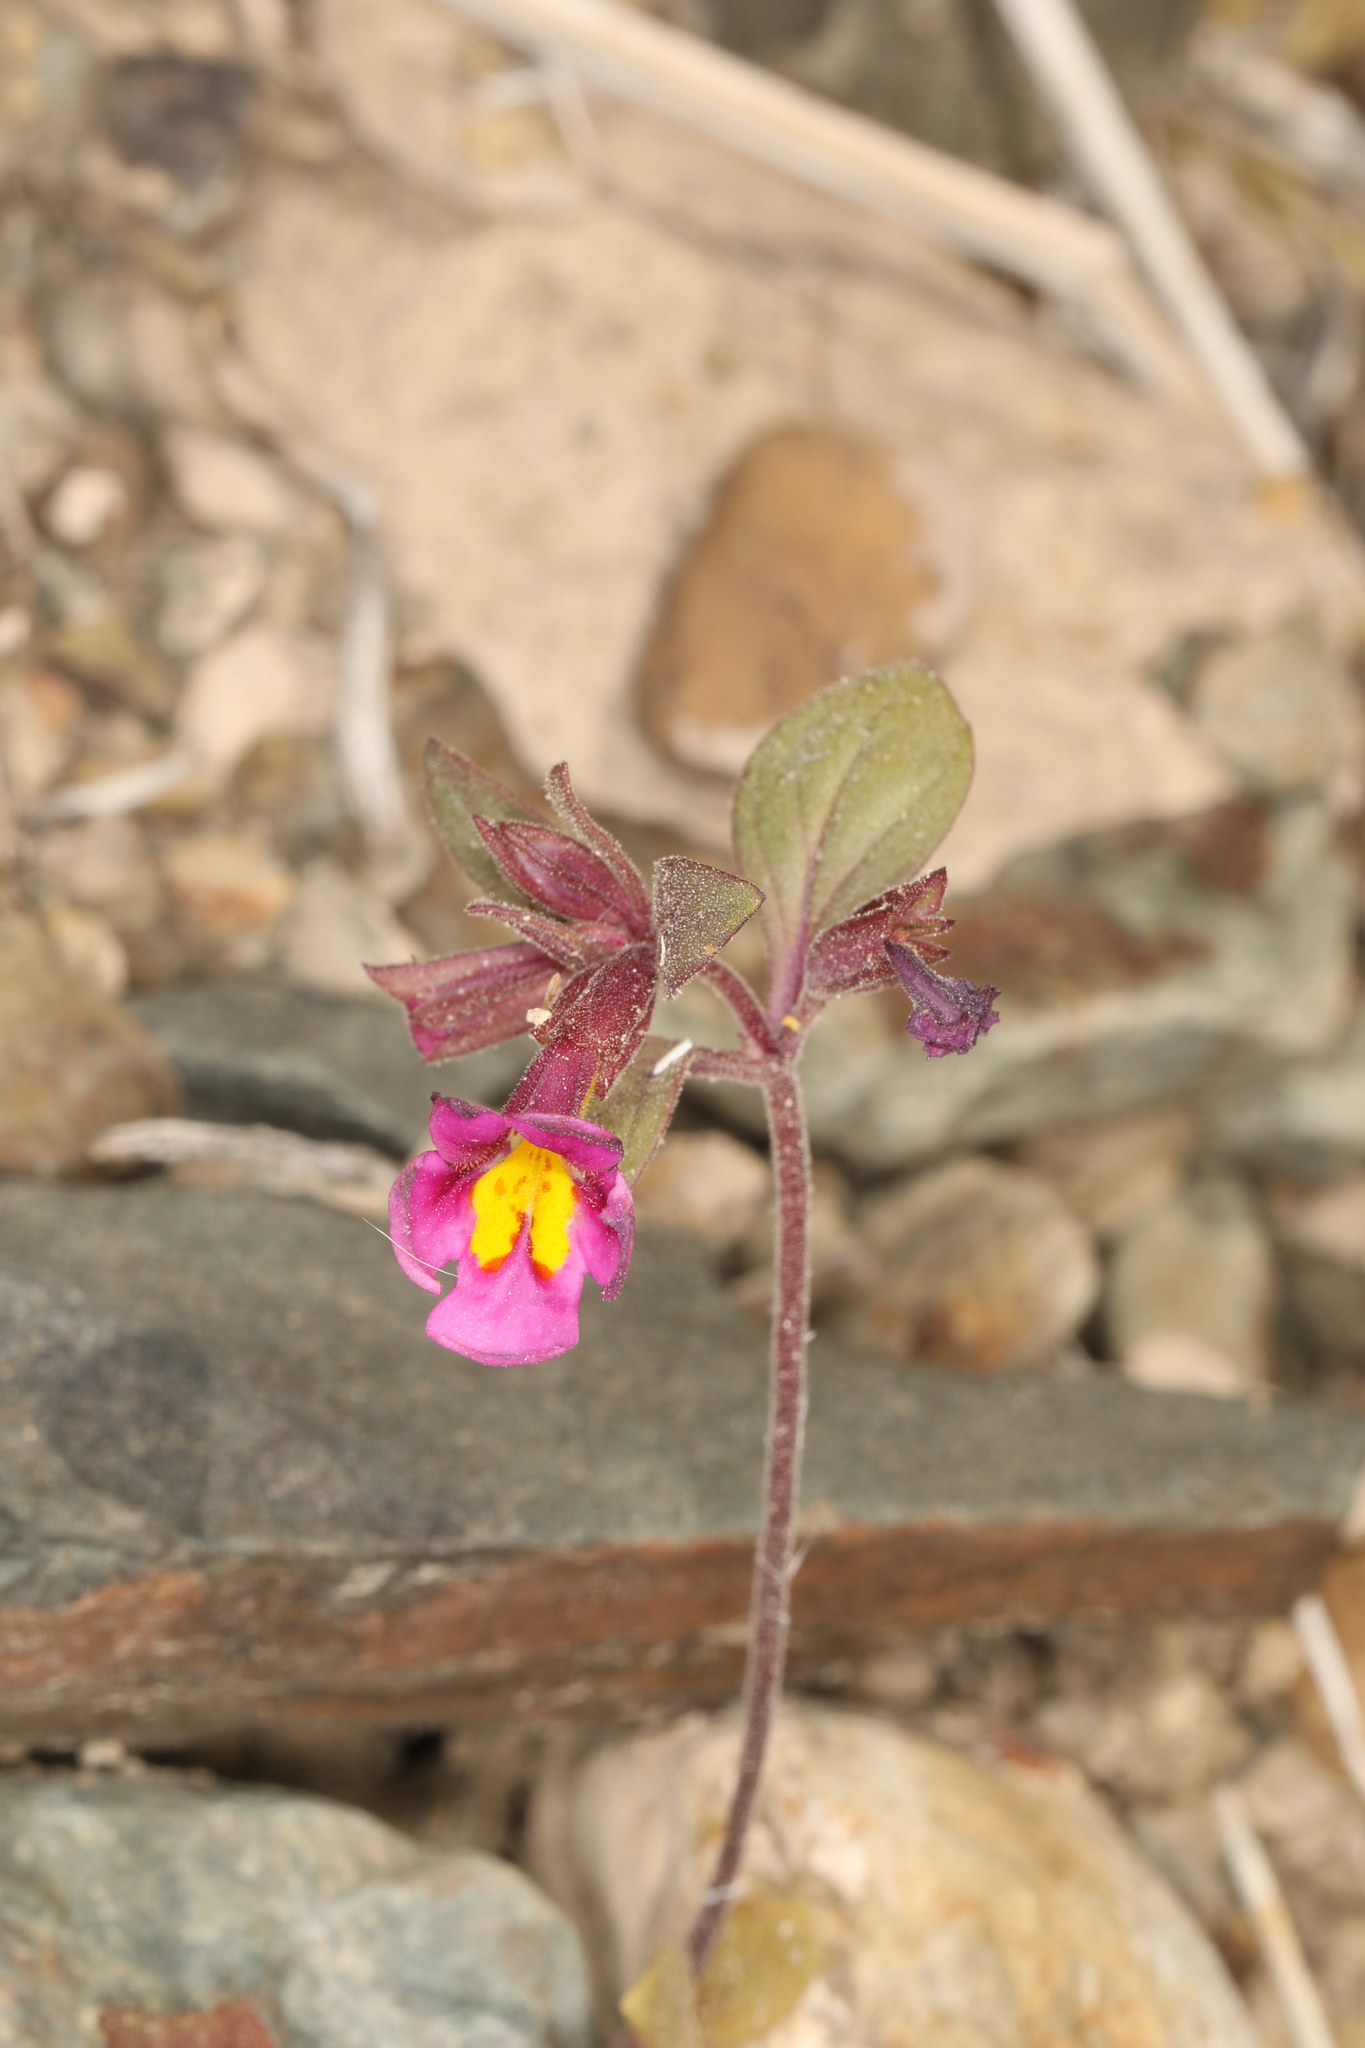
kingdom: Plantae
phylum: Tracheophyta
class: Magnoliopsida
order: Lamiales
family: Phrymaceae
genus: Diplacus
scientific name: Diplacus parryi
